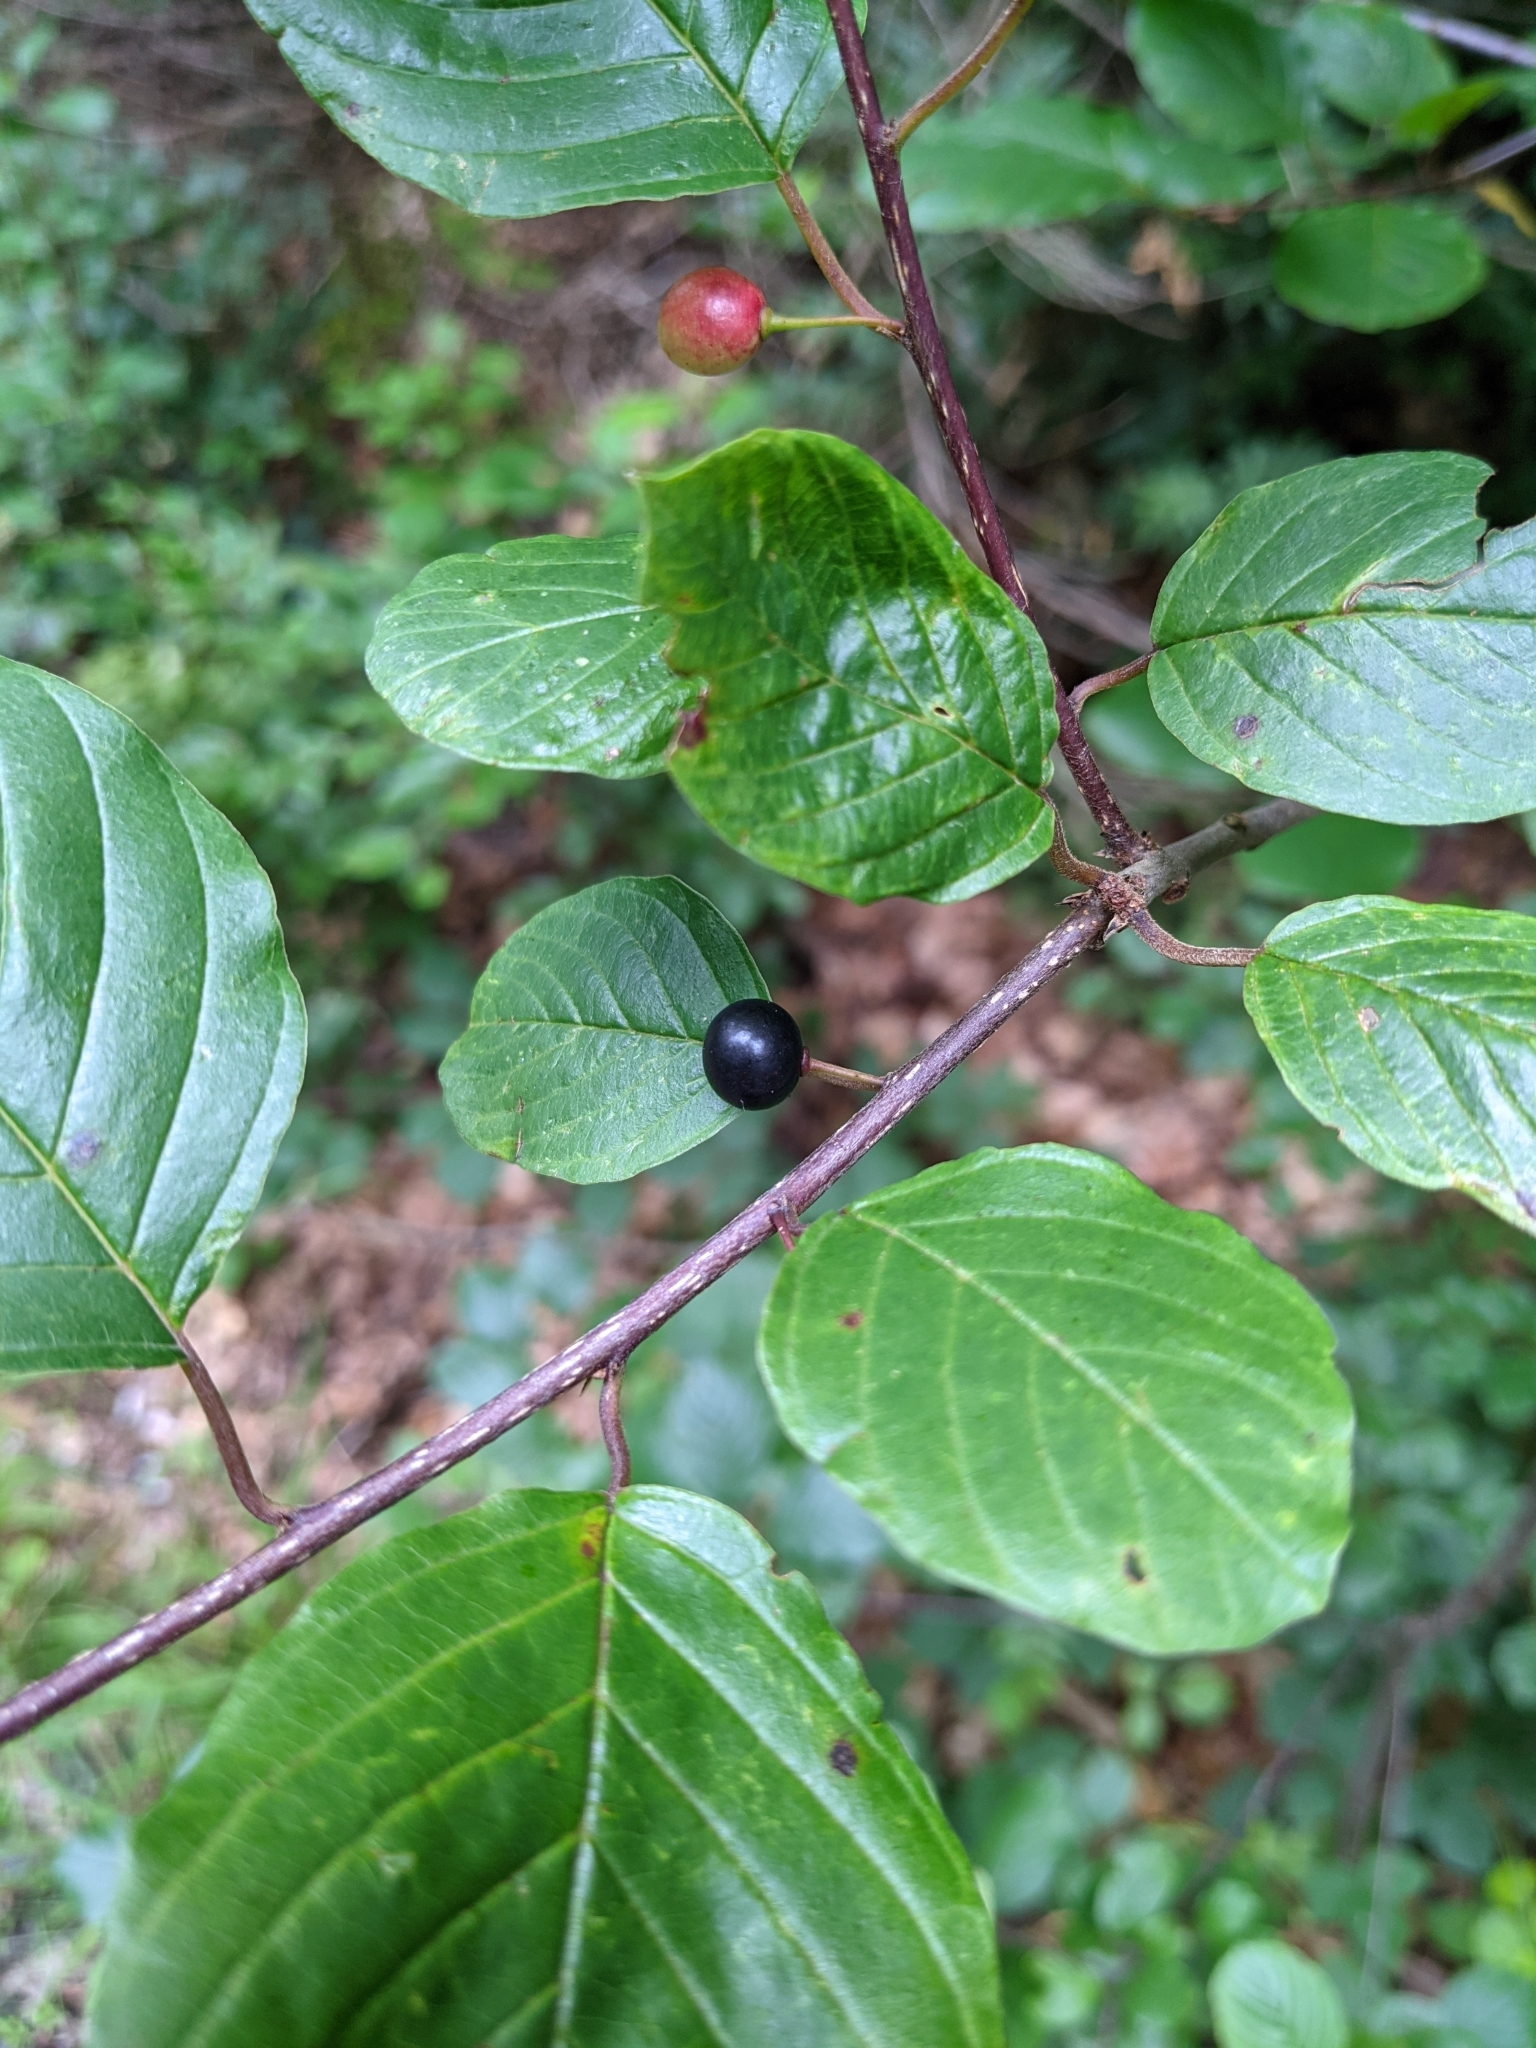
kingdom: Plantae
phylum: Tracheophyta
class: Magnoliopsida
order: Rosales
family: Rhamnaceae
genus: Frangula
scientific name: Frangula alnus
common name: Alder buckthorn
